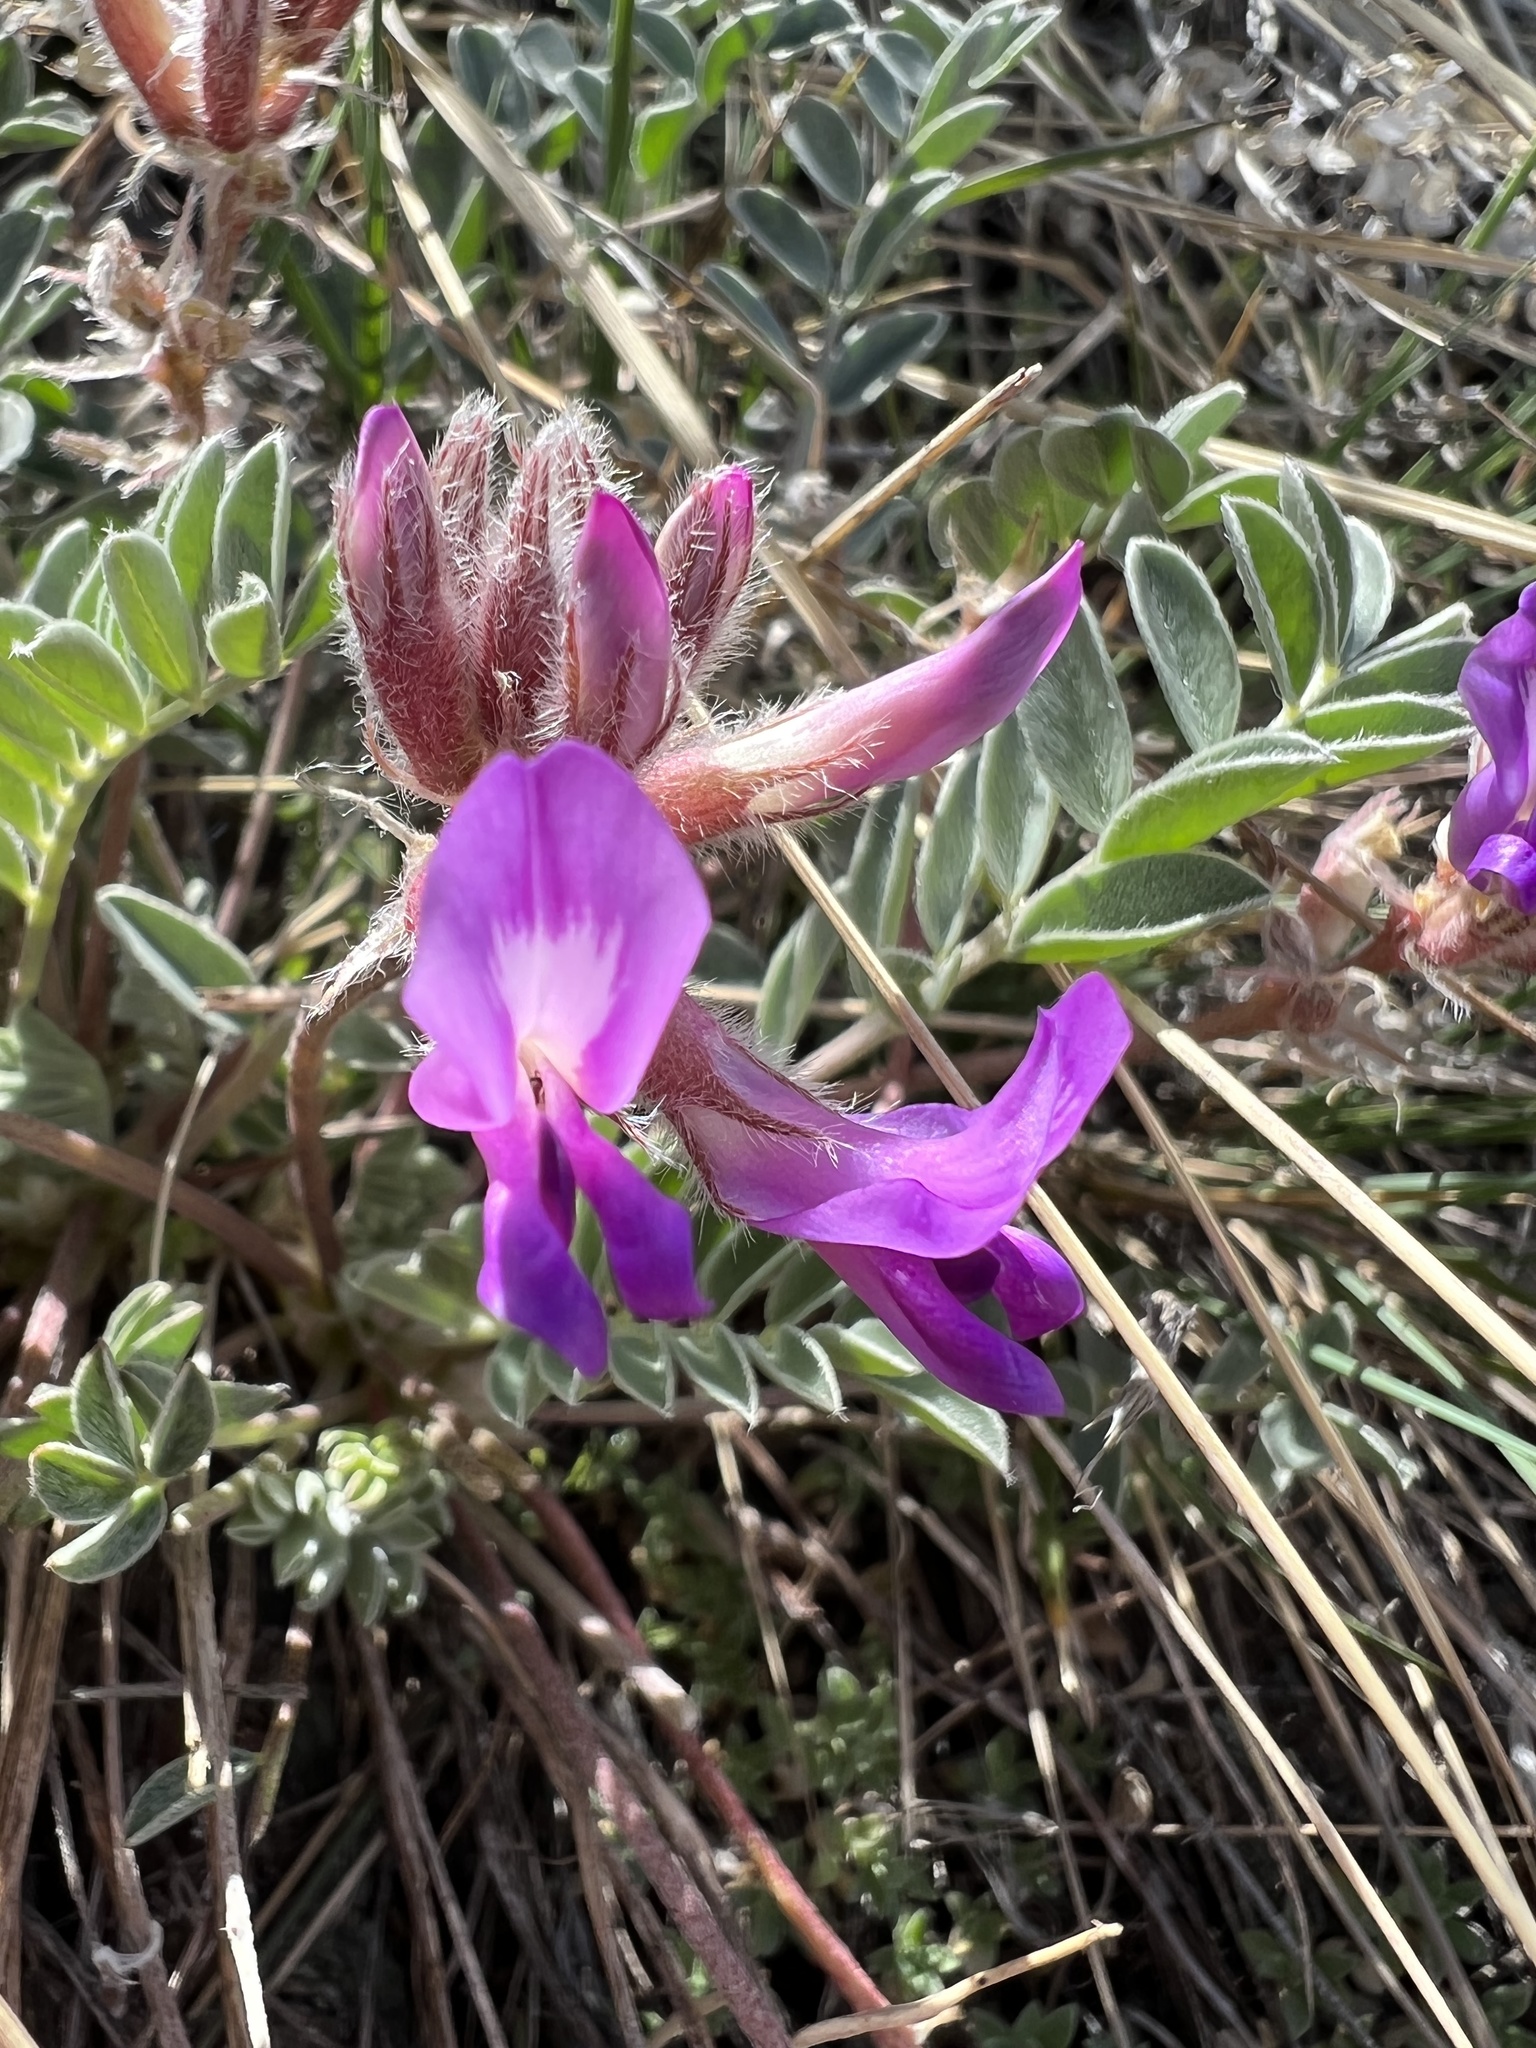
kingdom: Plantae
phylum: Tracheophyta
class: Magnoliopsida
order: Fabales
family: Fabaceae
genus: Astragalus
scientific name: Astragalus shortianus
